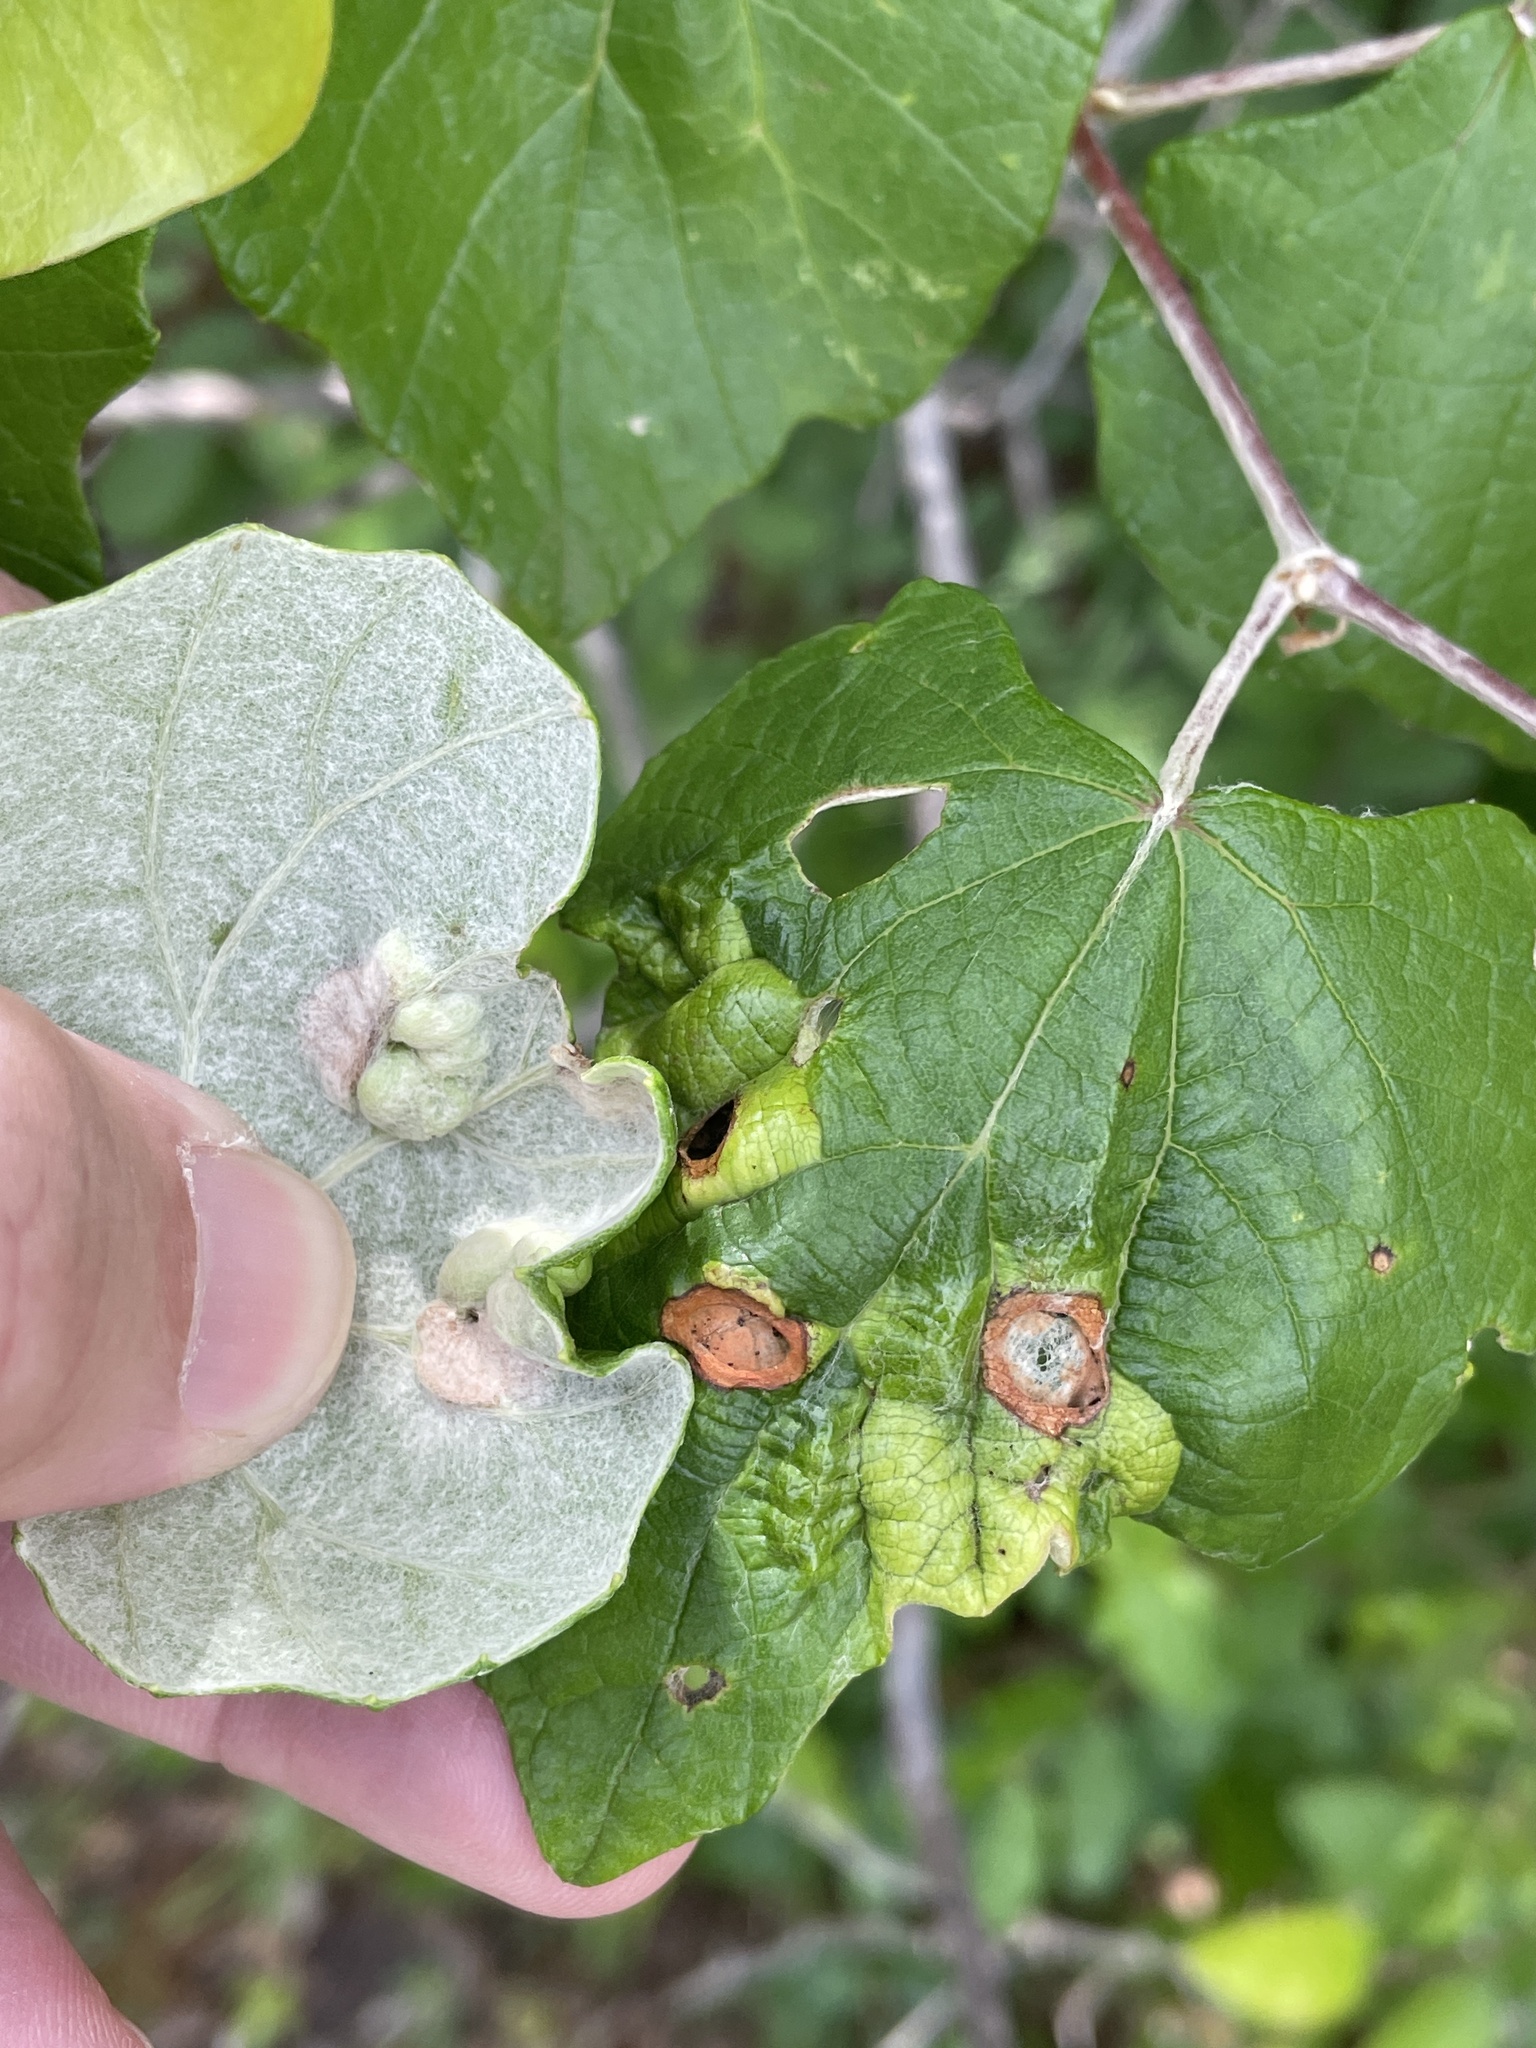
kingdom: Animalia
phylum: Arthropoda
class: Insecta
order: Lepidoptera
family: Heliozelidae
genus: Heliozela
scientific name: Heliozela aesella
